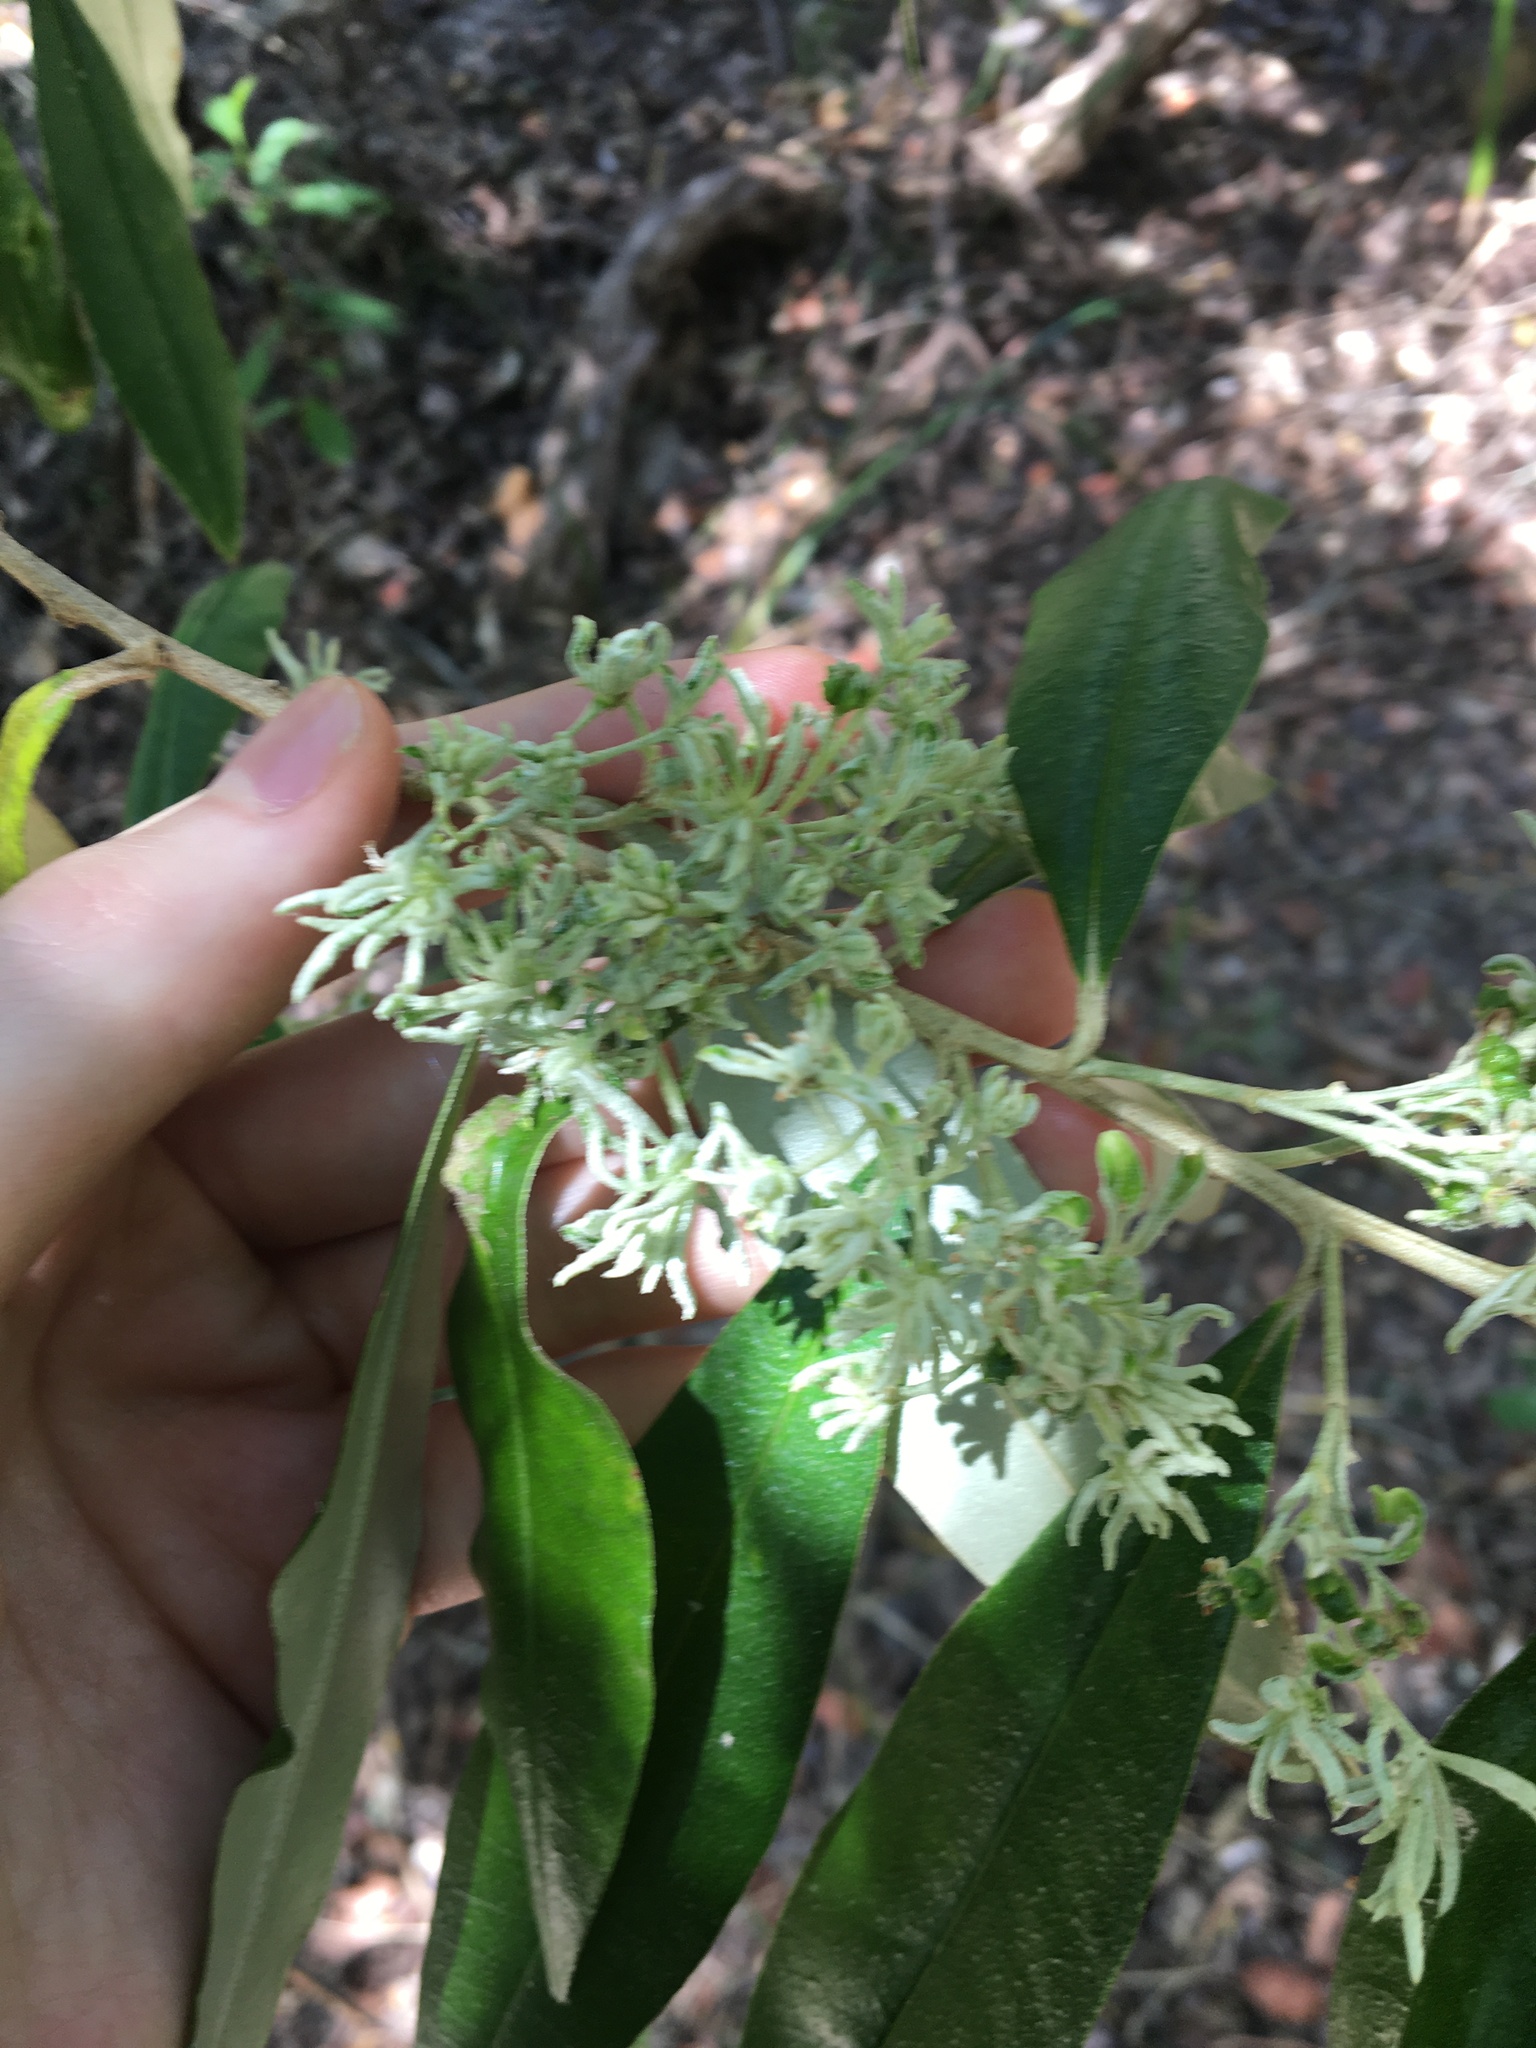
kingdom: Plantae
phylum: Tracheophyta
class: Magnoliopsida
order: Sapindales
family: Rutaceae
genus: Nematolepis
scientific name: Nematolepis squamea
